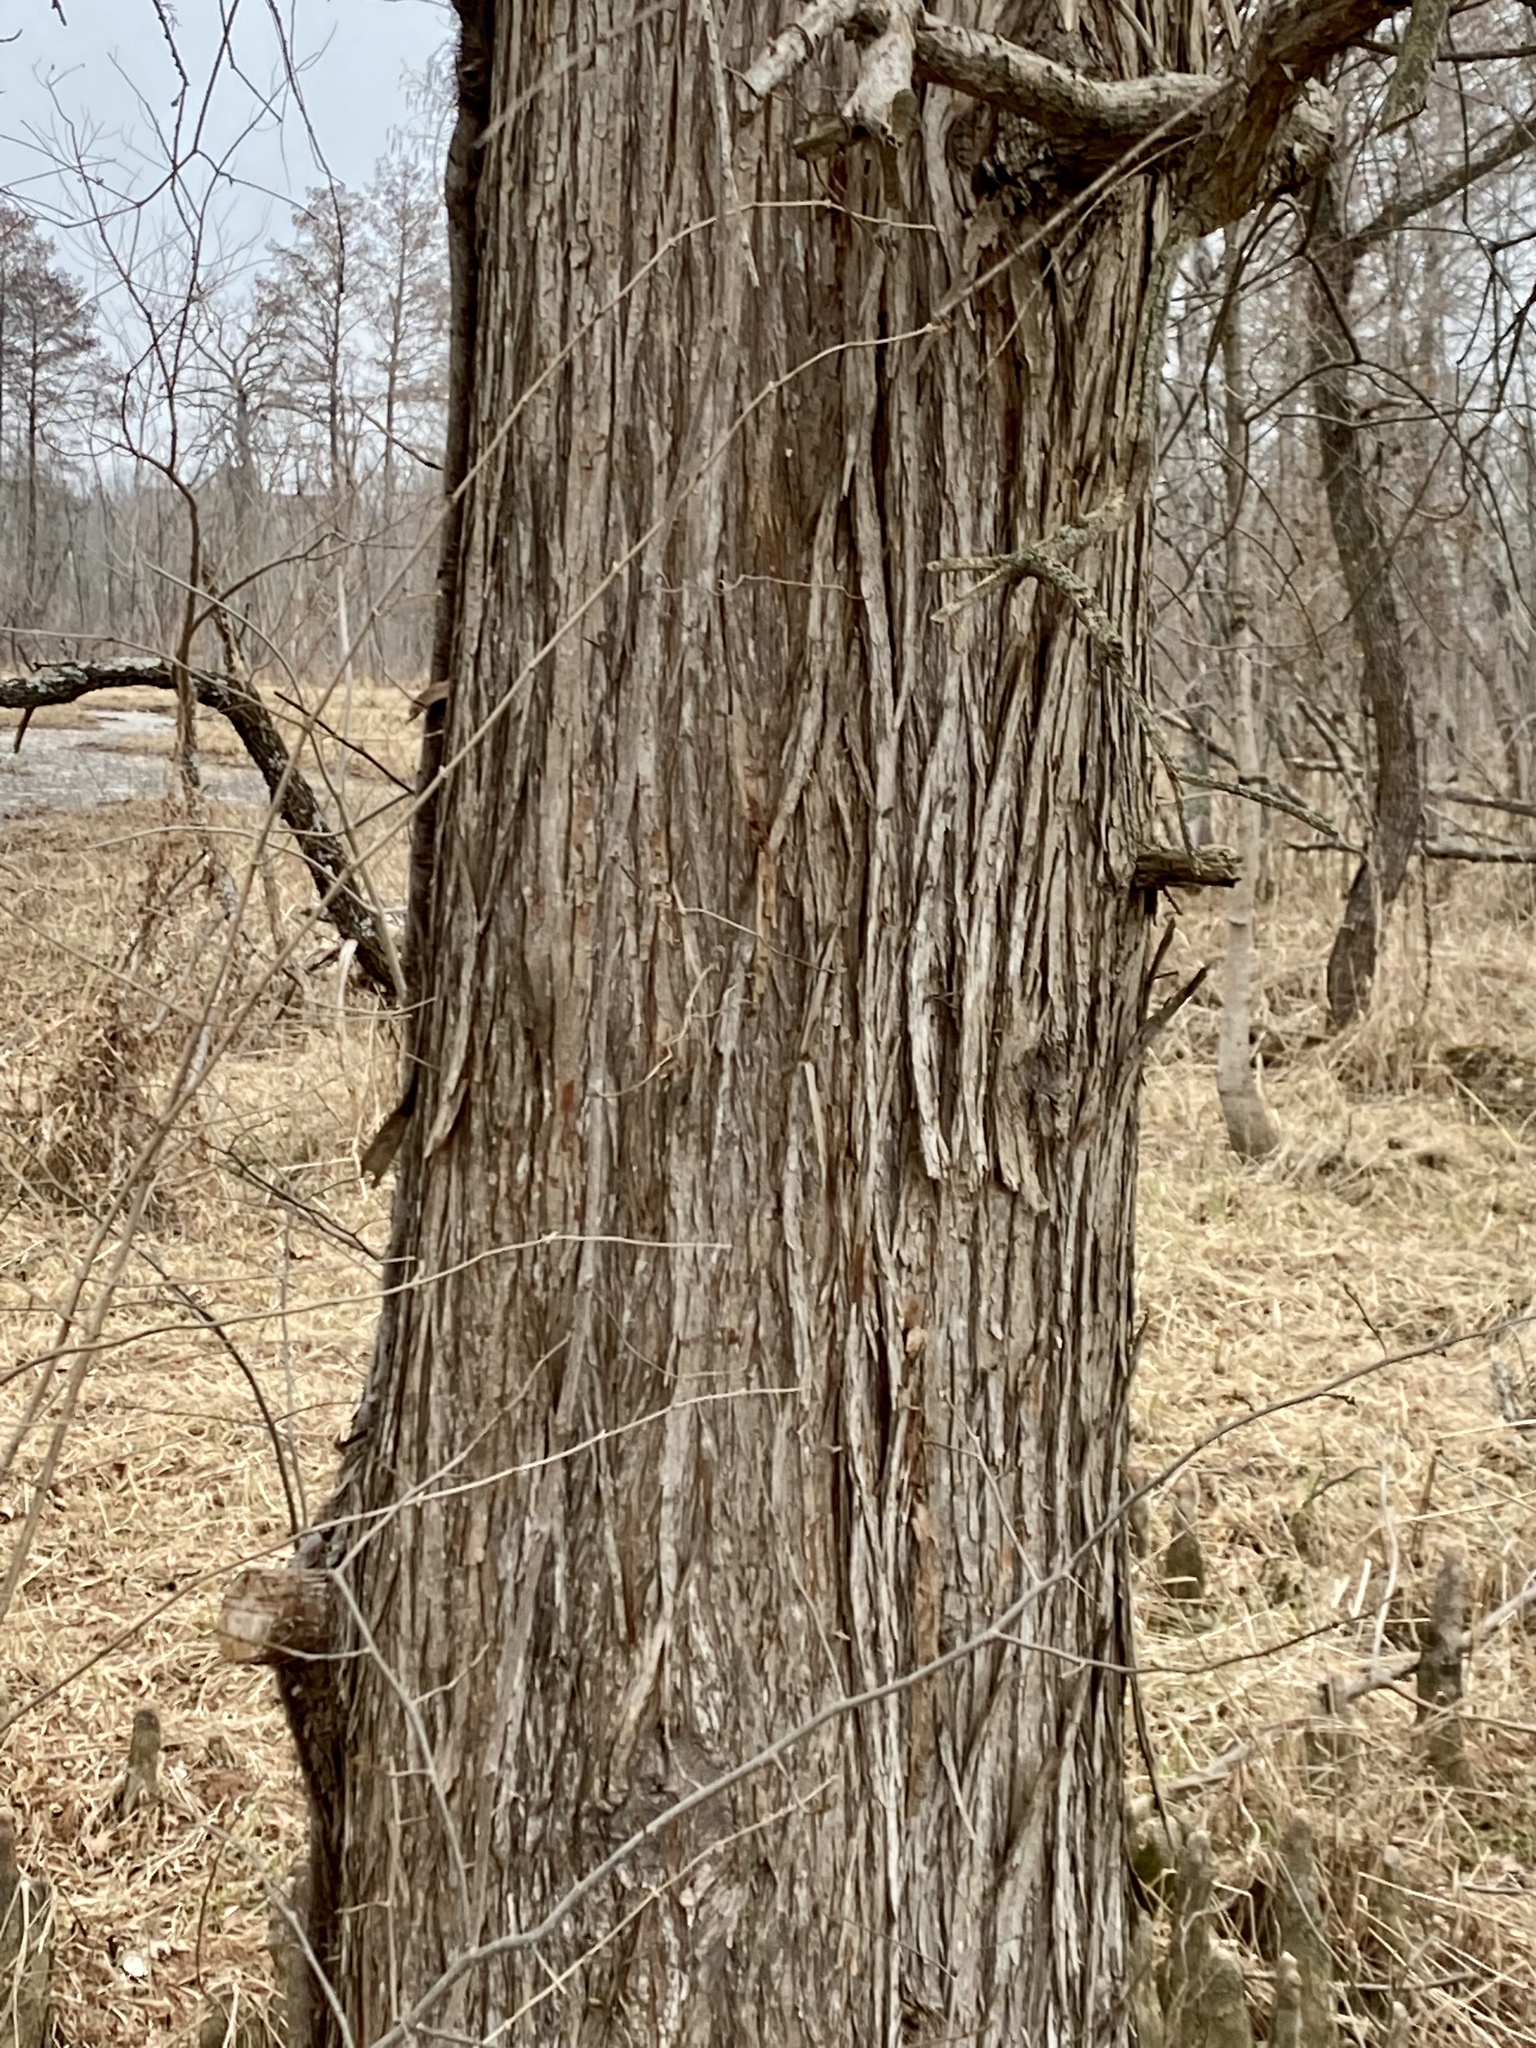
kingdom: Plantae
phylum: Tracheophyta
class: Pinopsida
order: Pinales
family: Cupressaceae
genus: Taxodium
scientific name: Taxodium distichum
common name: Bald cypress
